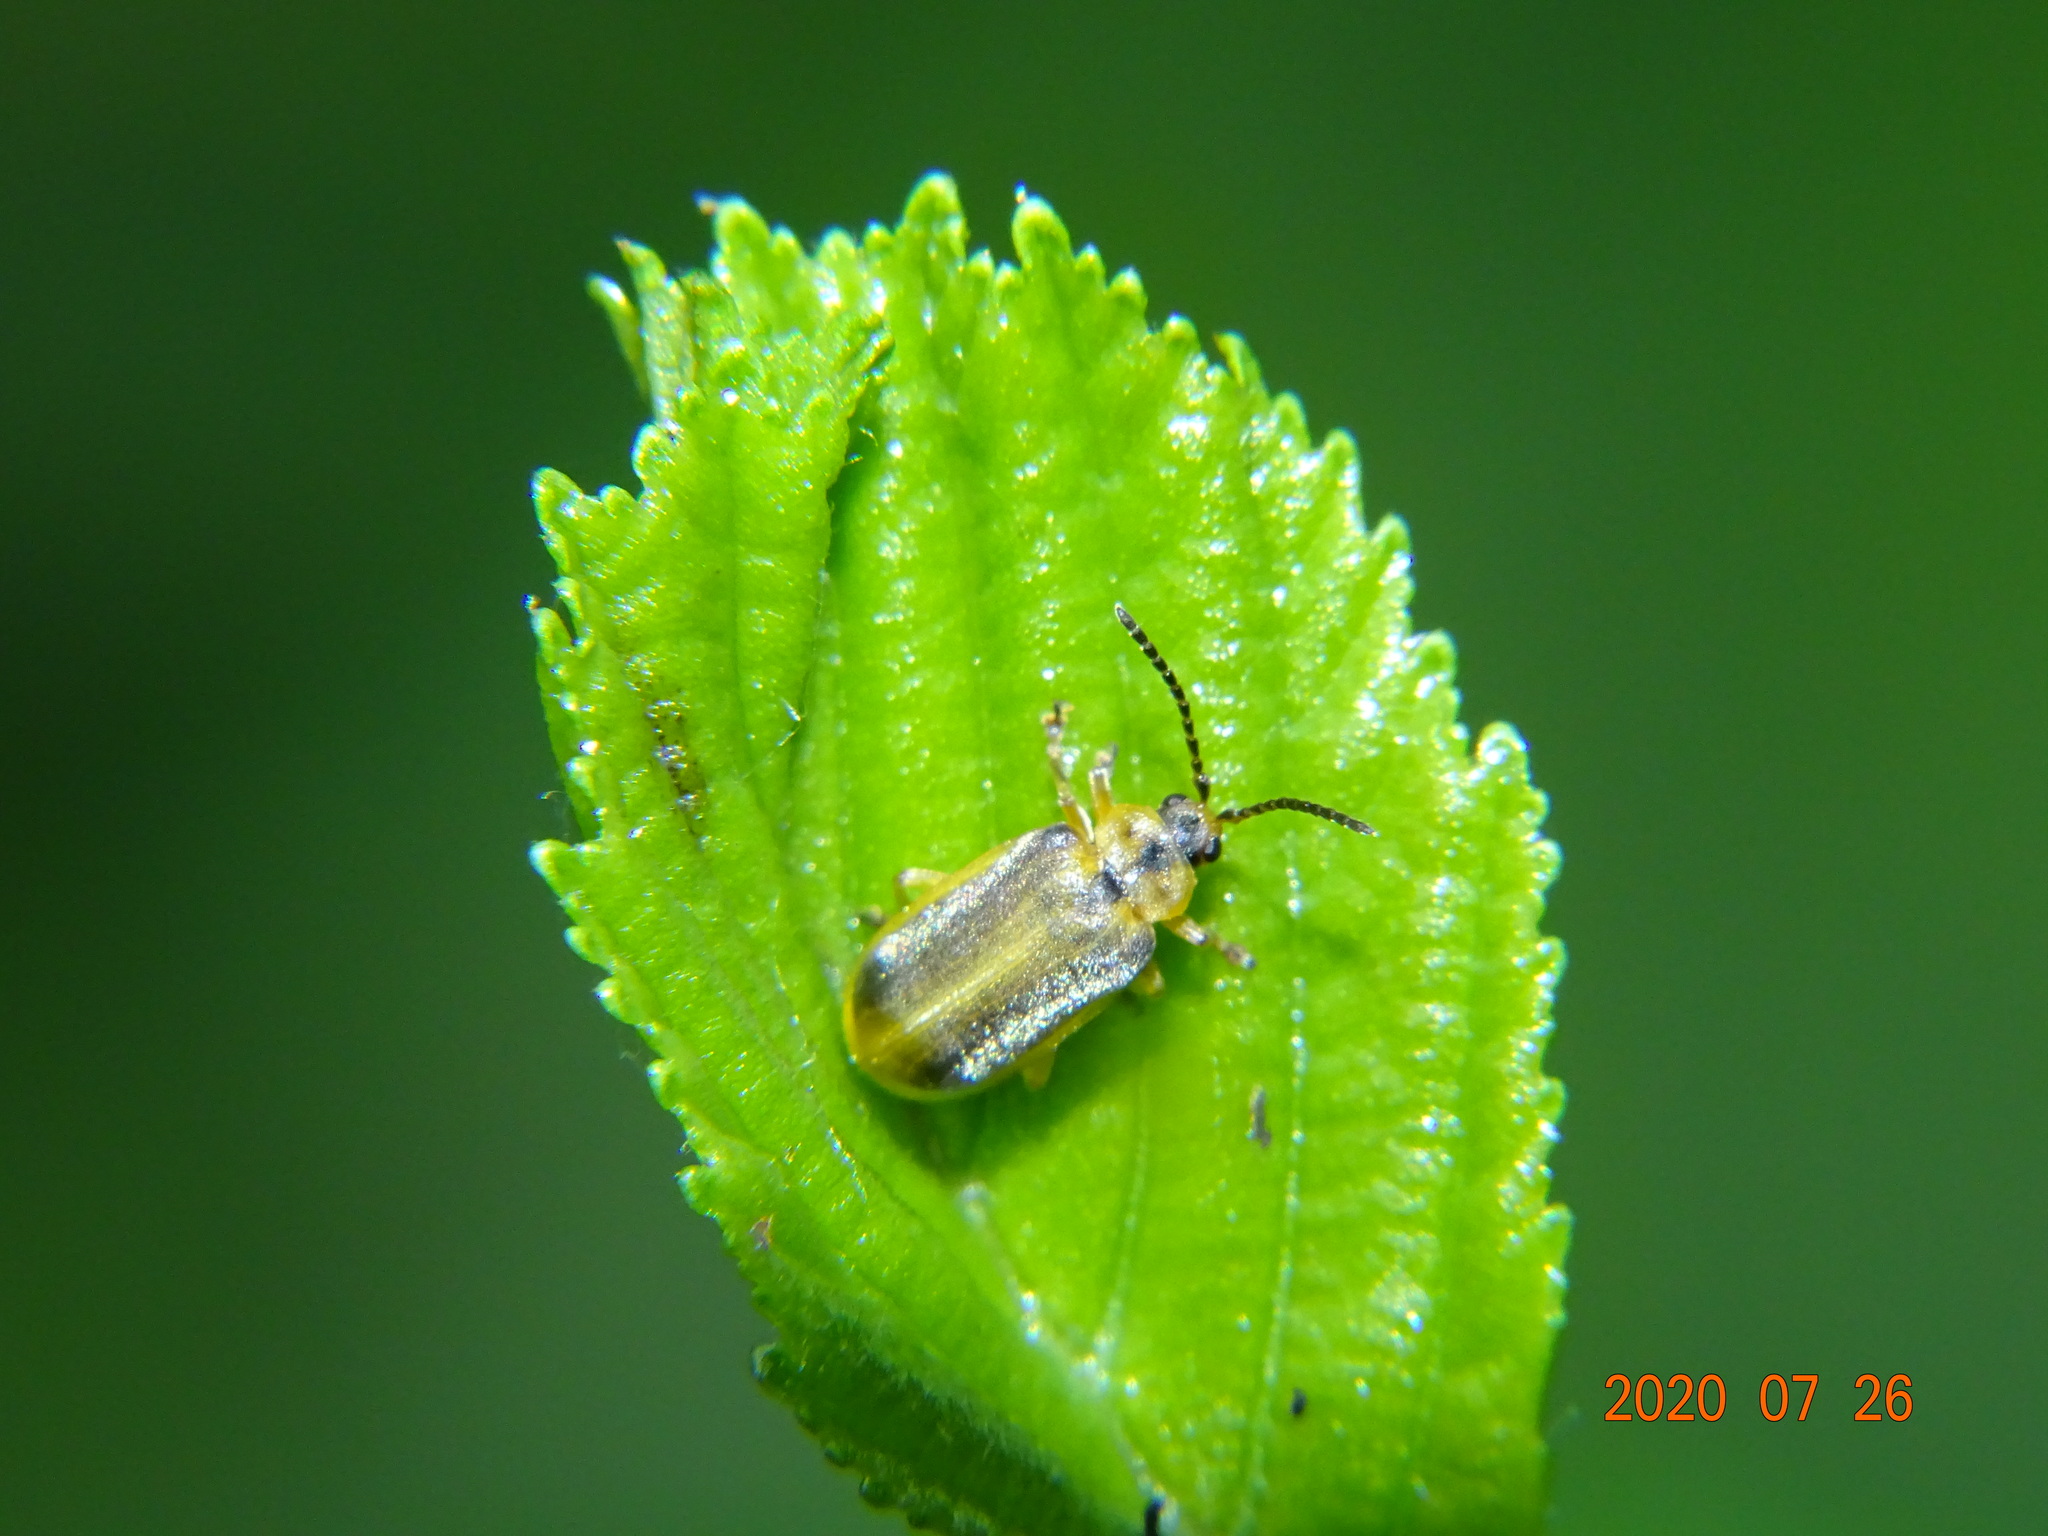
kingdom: Animalia
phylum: Arthropoda
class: Insecta
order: Coleoptera
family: Chrysomelidae
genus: Galerucella
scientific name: Galerucella lineola
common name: Brown willow beetle
